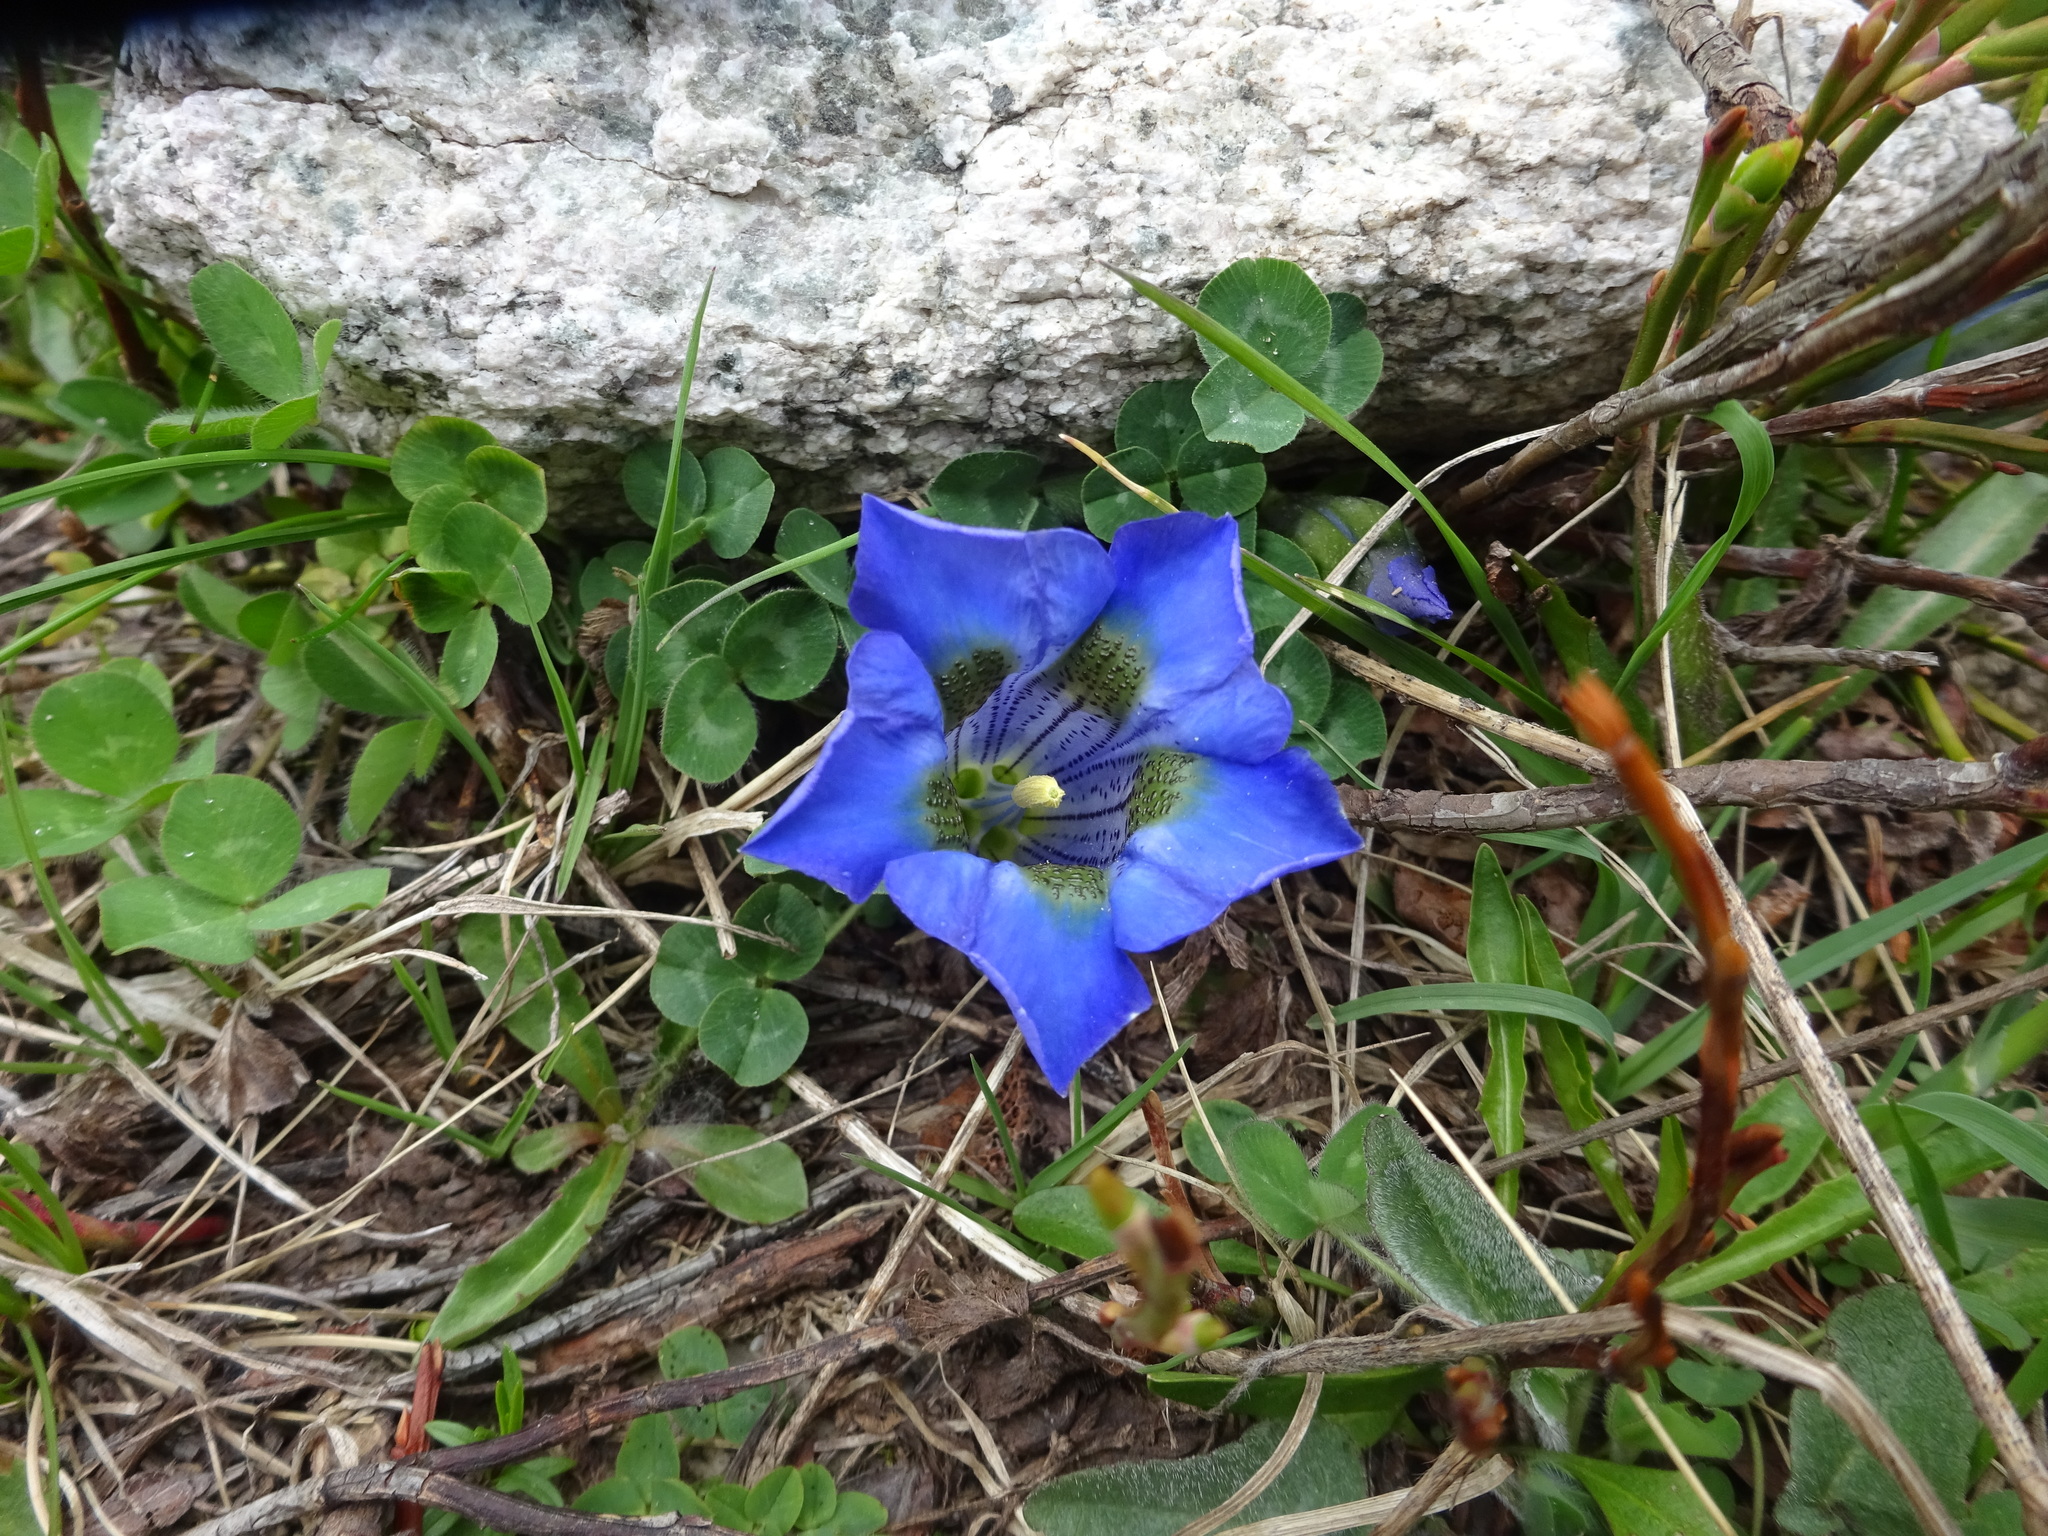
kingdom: Plantae
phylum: Tracheophyta
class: Magnoliopsida
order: Gentianales
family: Gentianaceae
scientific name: Gentianaceae
